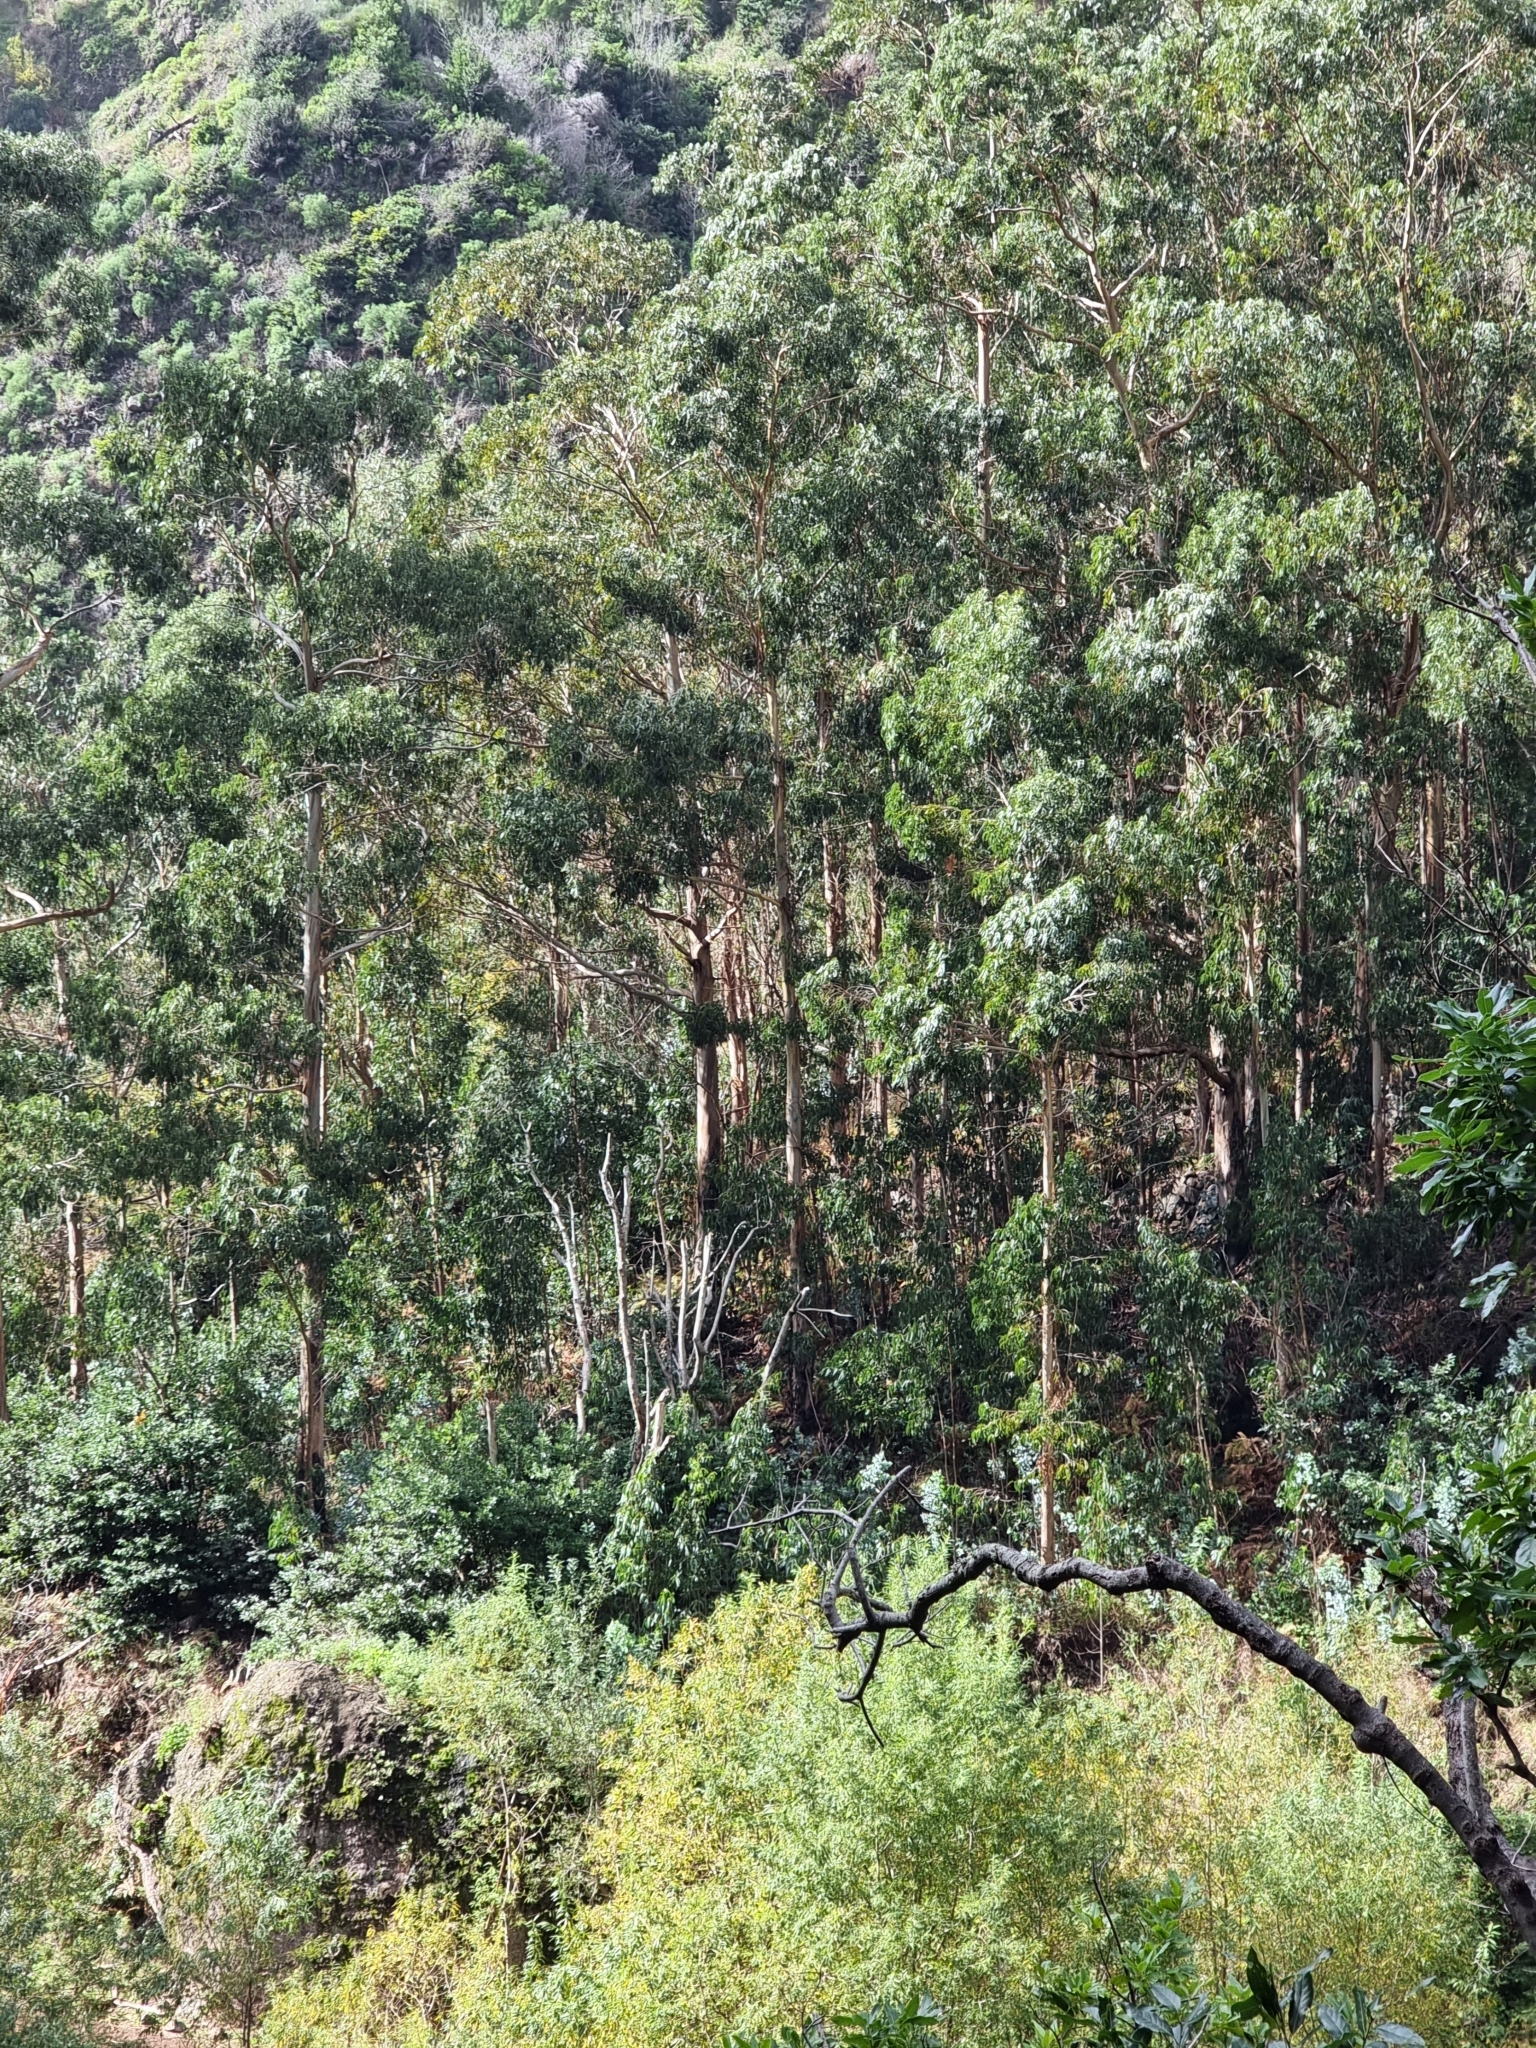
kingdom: Plantae
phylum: Tracheophyta
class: Magnoliopsida
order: Myrtales
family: Myrtaceae
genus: Eucalyptus
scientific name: Eucalyptus globulus
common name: Southern blue-gum
